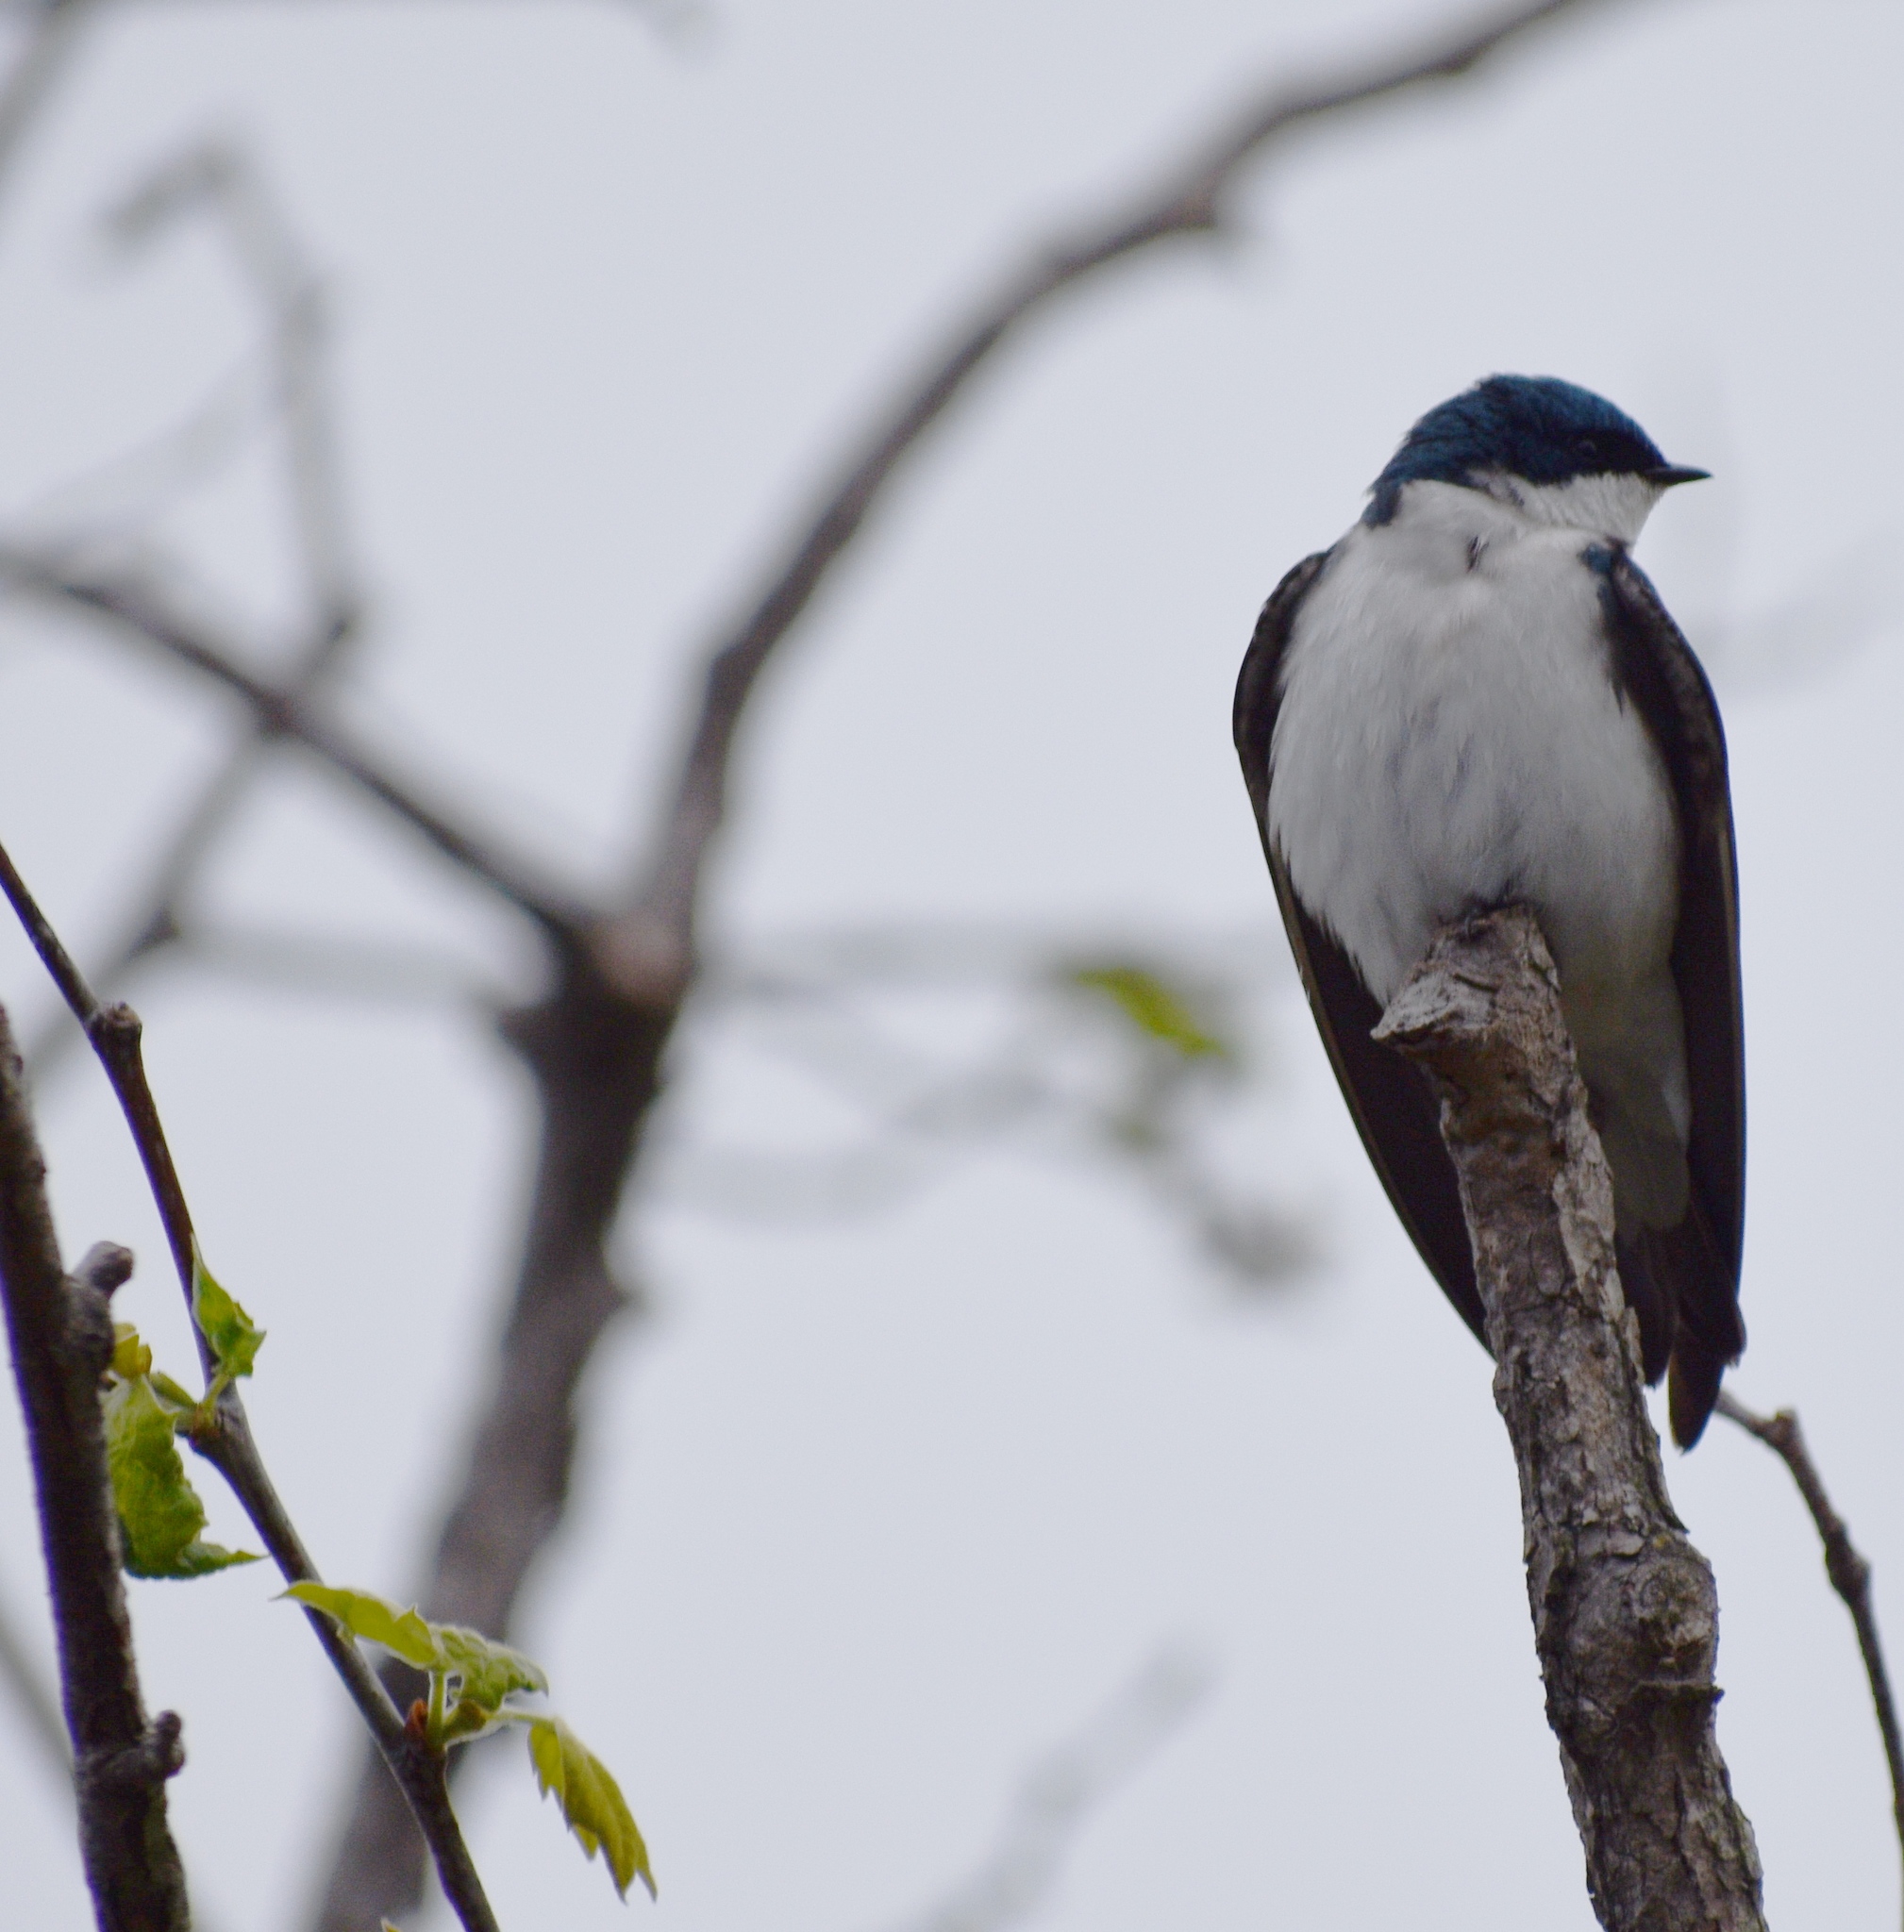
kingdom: Animalia
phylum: Chordata
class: Aves
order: Passeriformes
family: Hirundinidae
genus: Tachycineta
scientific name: Tachycineta bicolor
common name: Tree swallow
